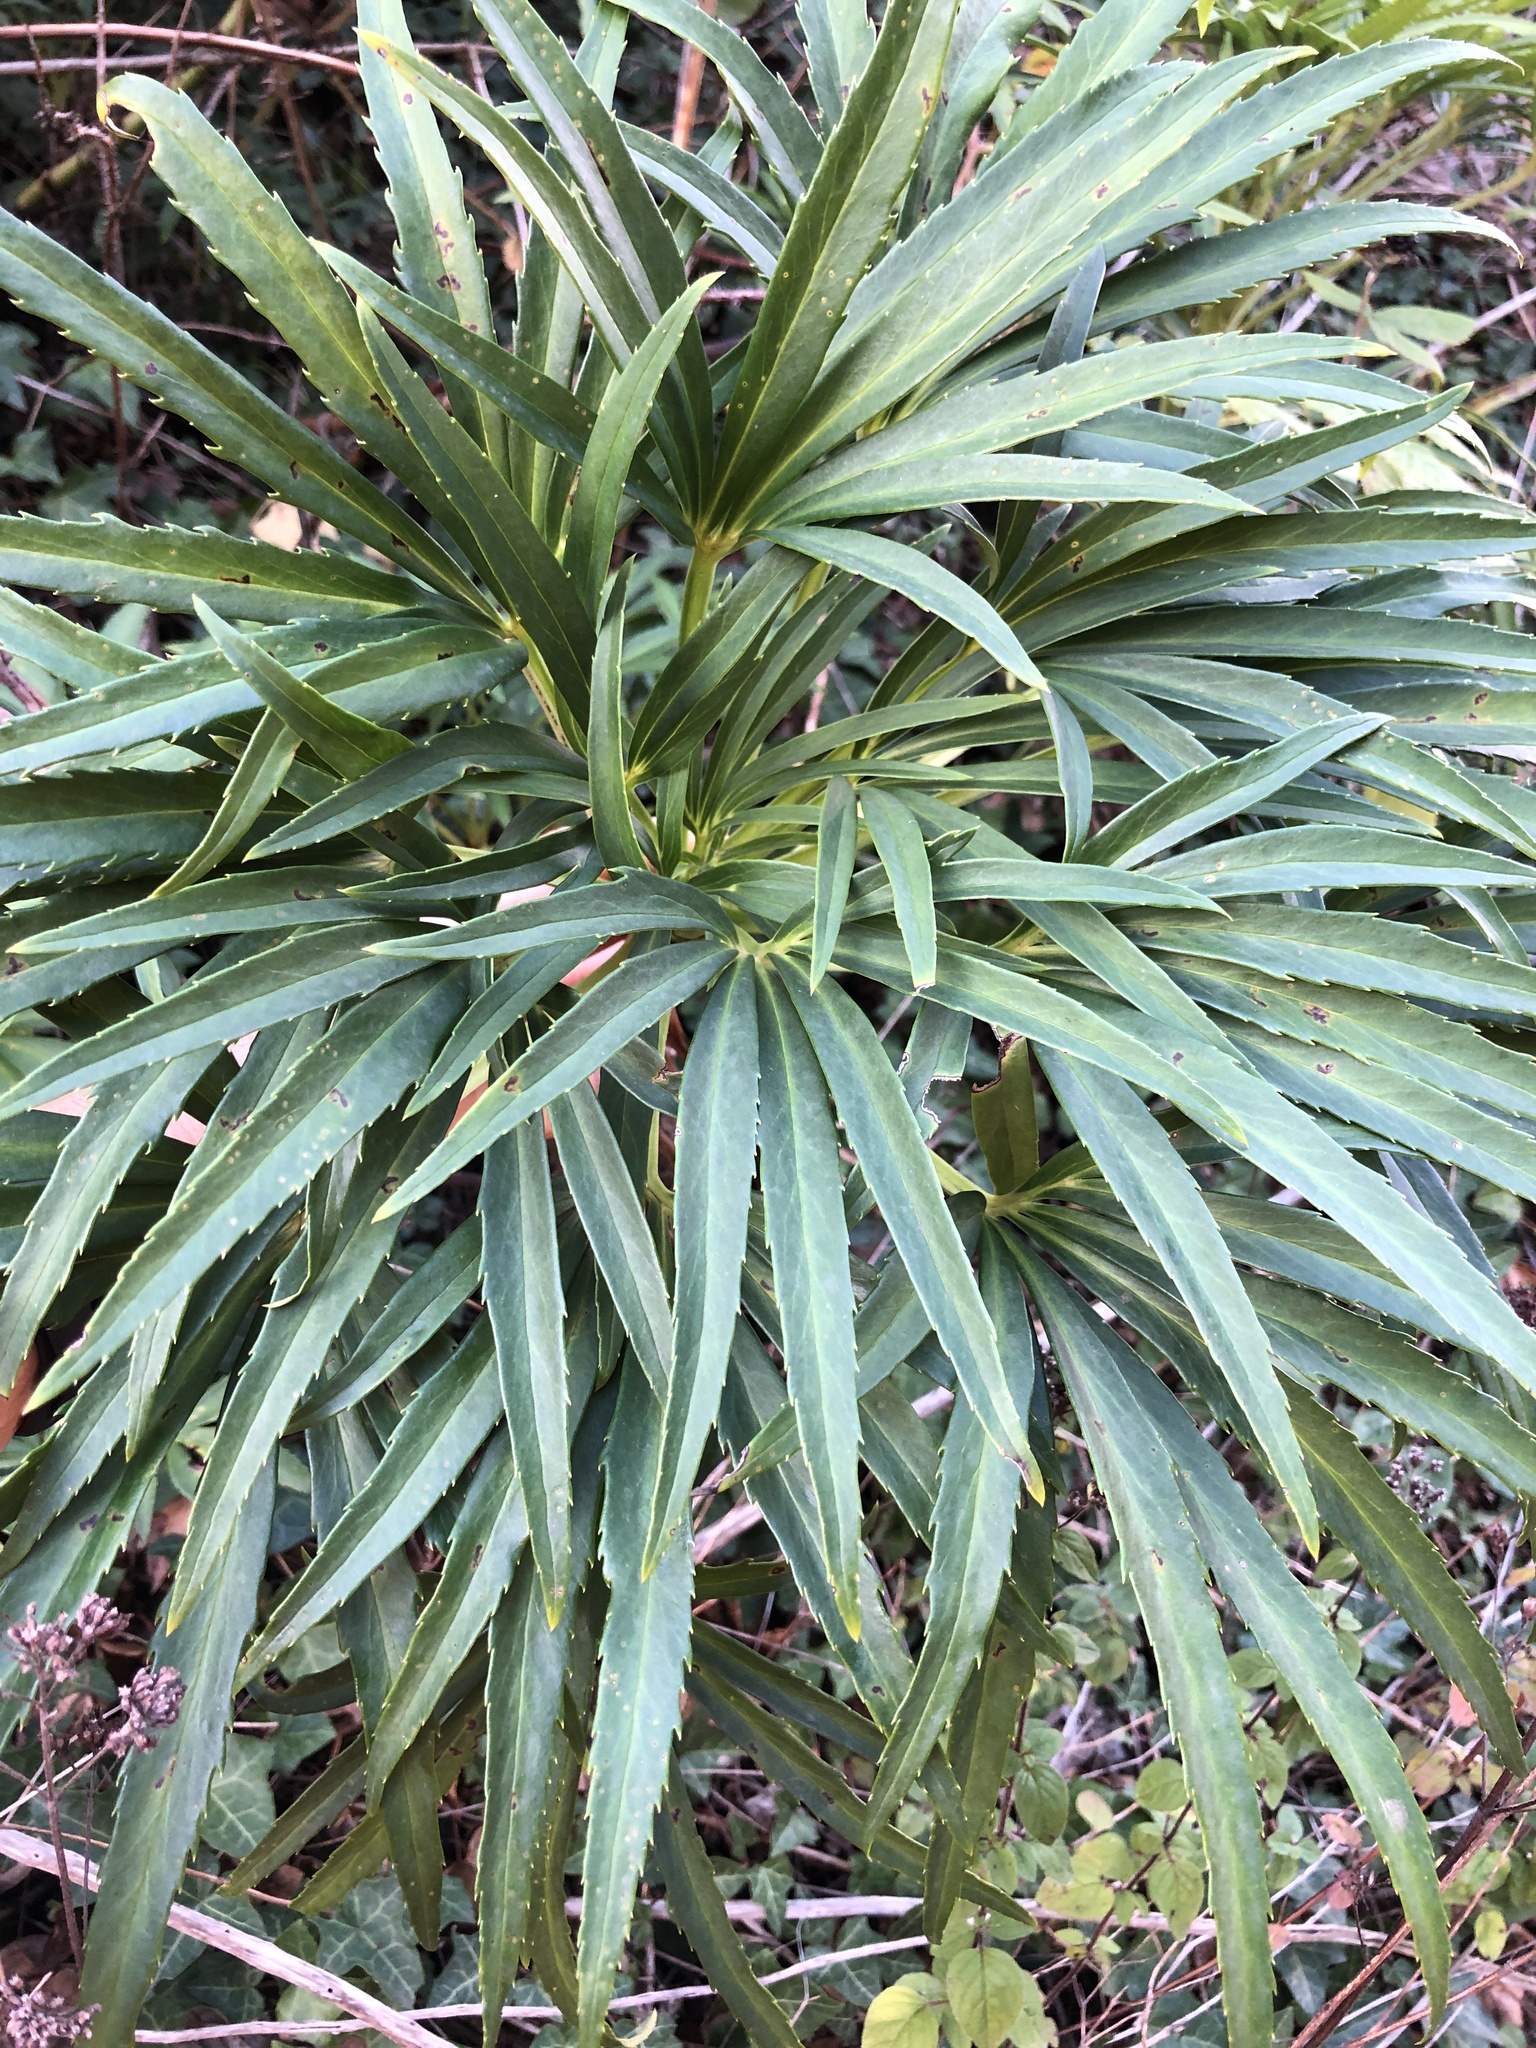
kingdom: Plantae
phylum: Tracheophyta
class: Magnoliopsida
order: Ranunculales
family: Ranunculaceae
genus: Helleborus
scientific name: Helleborus foetidus
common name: Stinking hellebore
